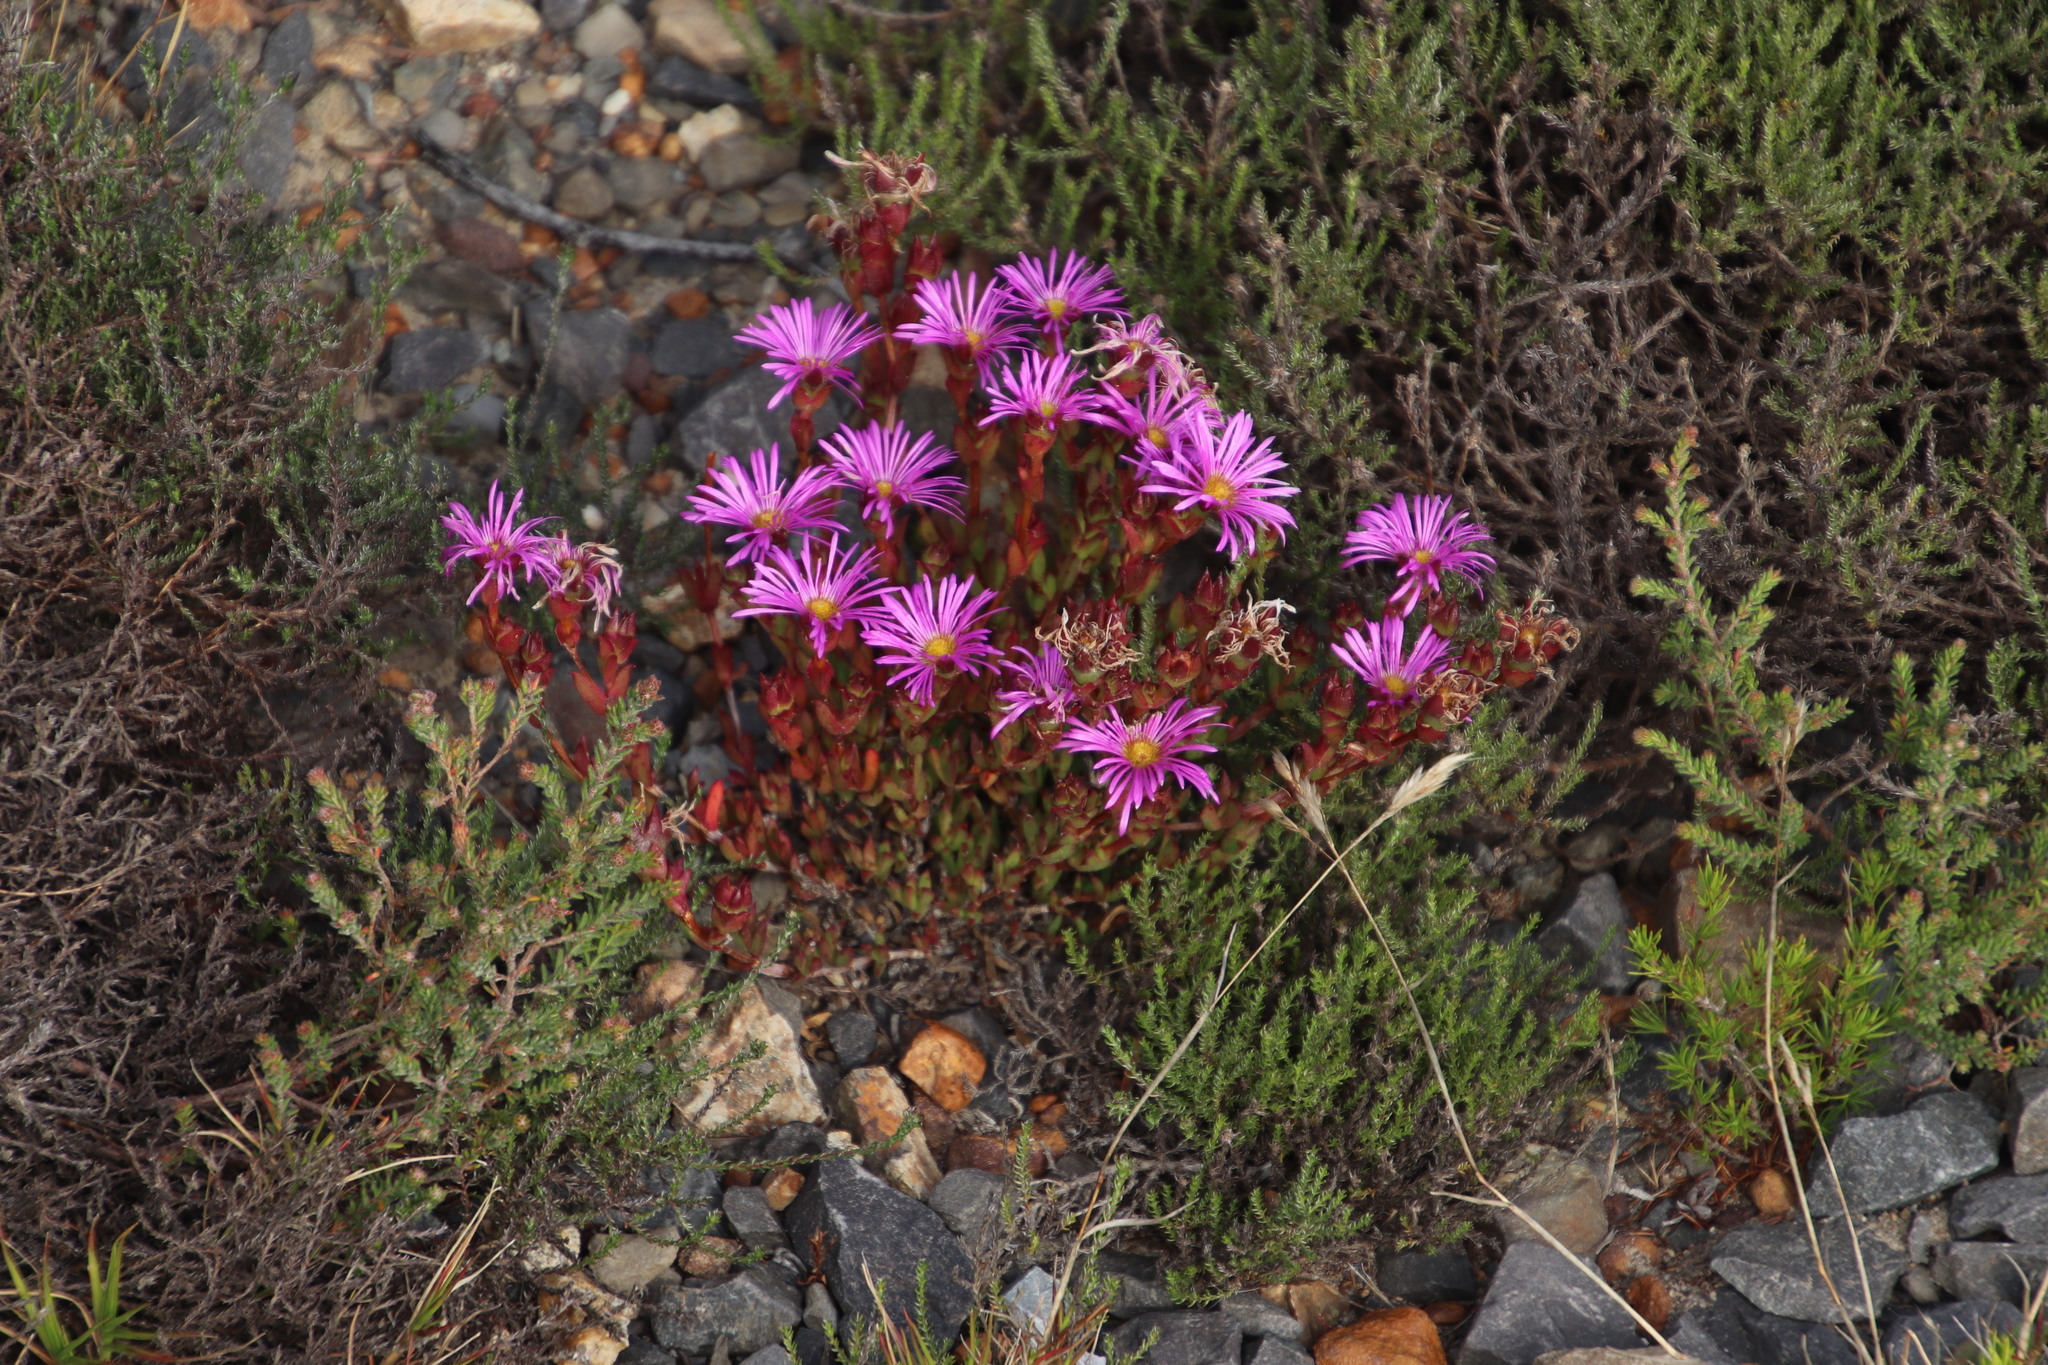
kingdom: Plantae
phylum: Tracheophyta
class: Magnoliopsida
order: Caryophyllales
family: Aizoaceae
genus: Erepsia
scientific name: Erepsia bracteata
